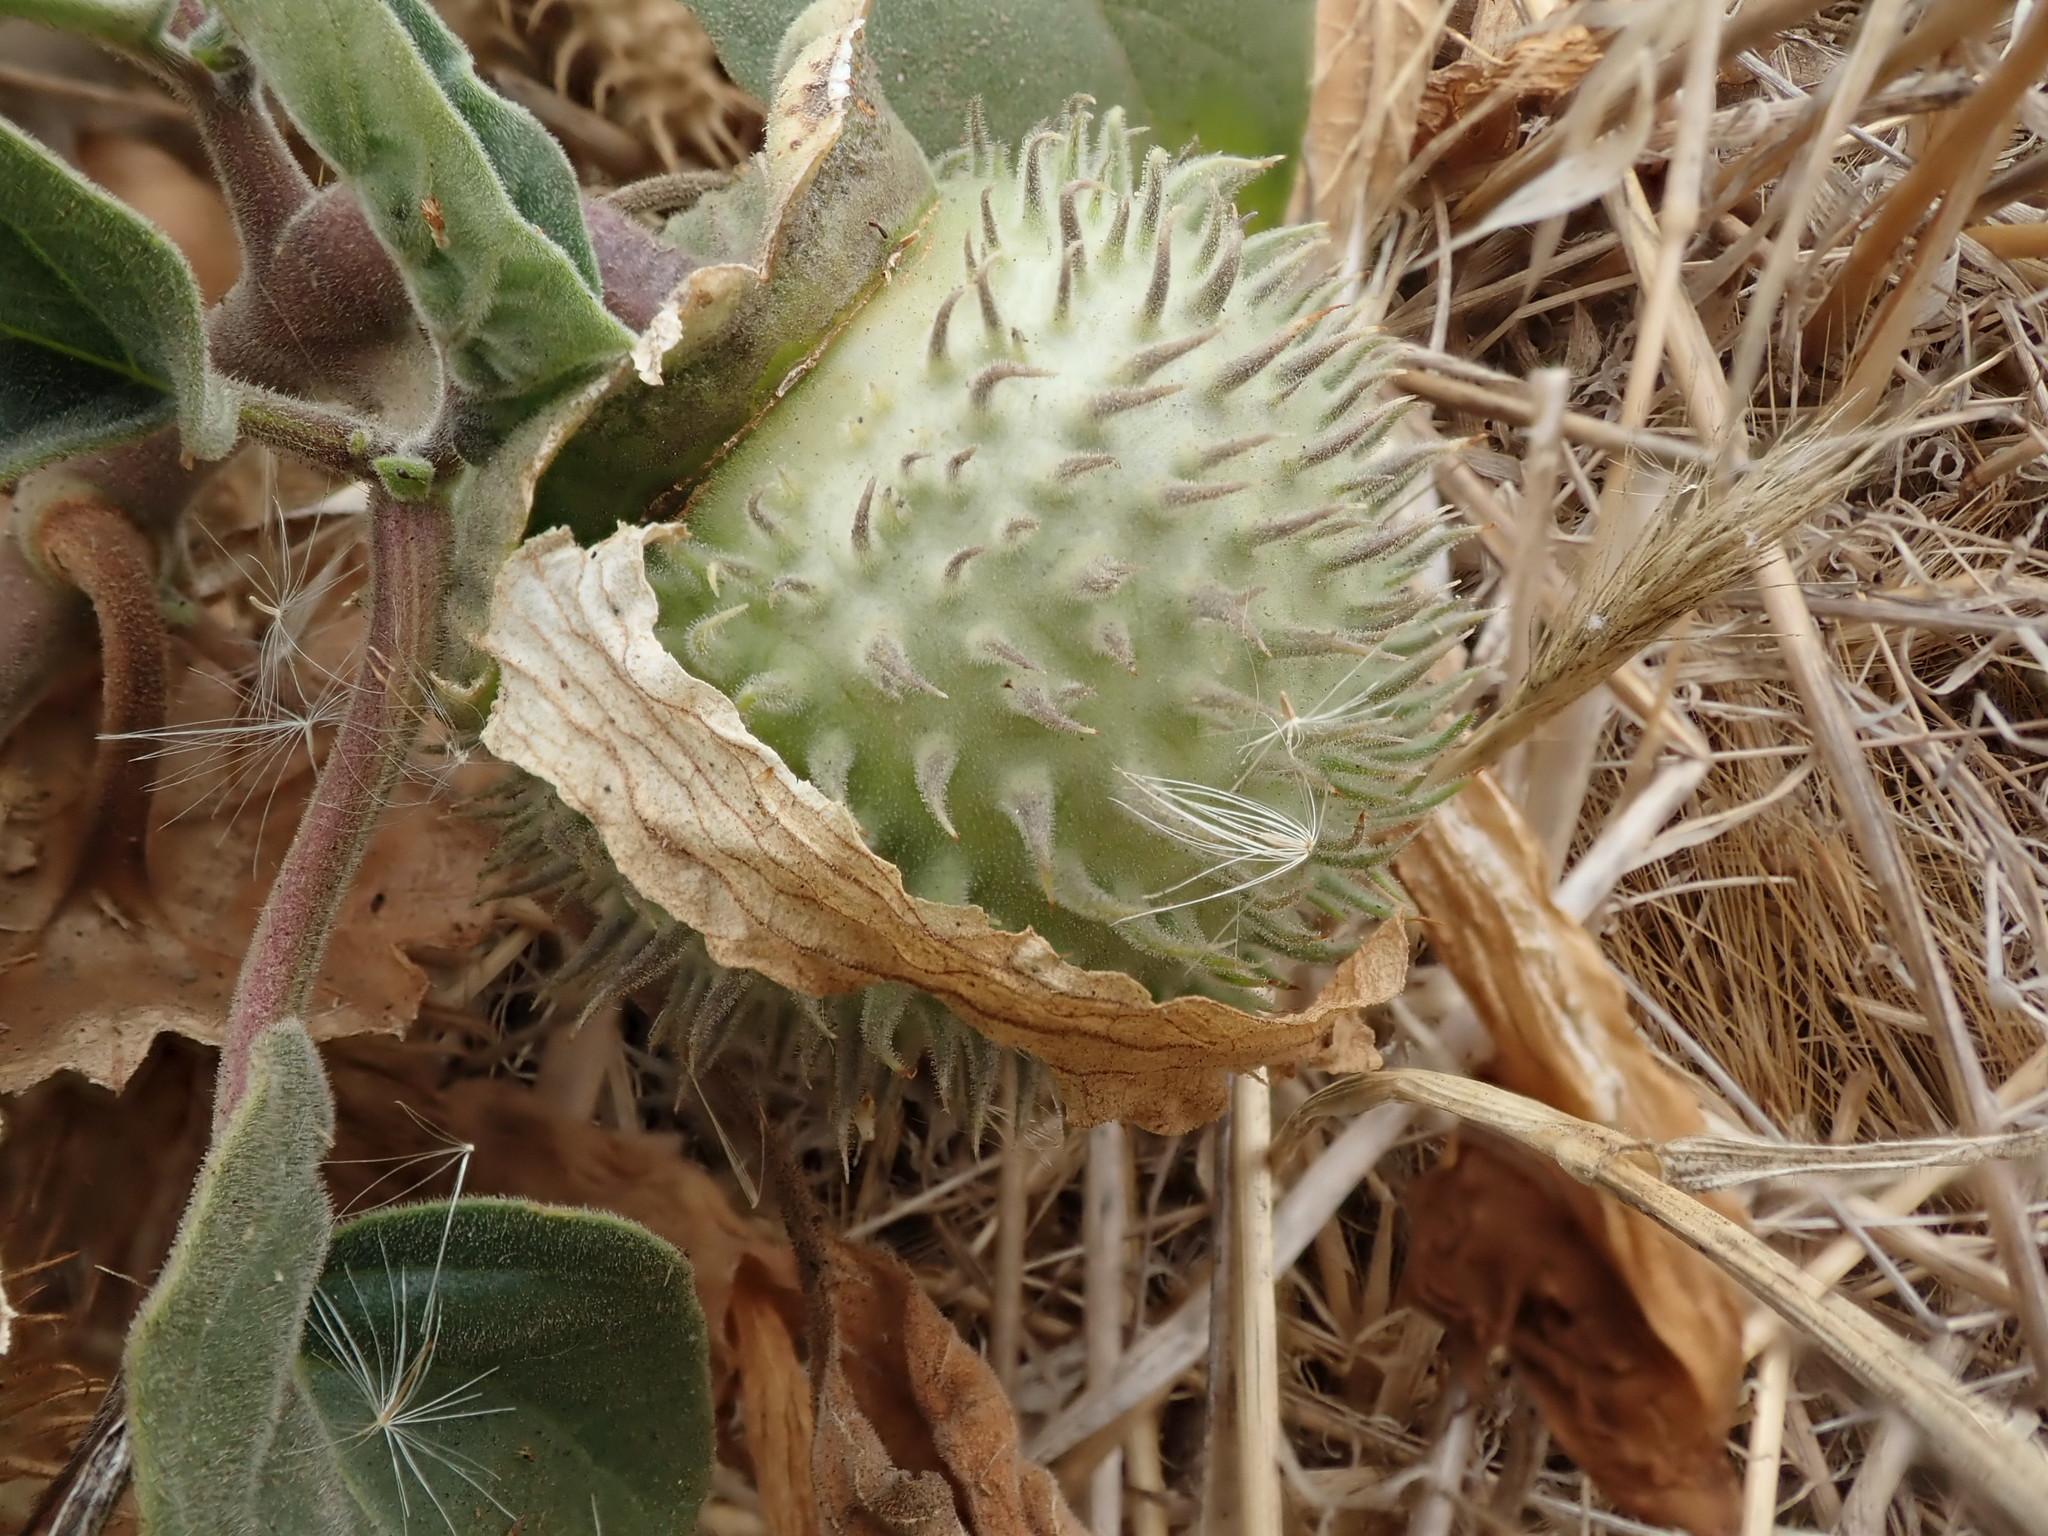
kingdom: Plantae
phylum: Tracheophyta
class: Magnoliopsida
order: Solanales
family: Solanaceae
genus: Datura
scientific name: Datura wrightii
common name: Sacred thorn-apple
